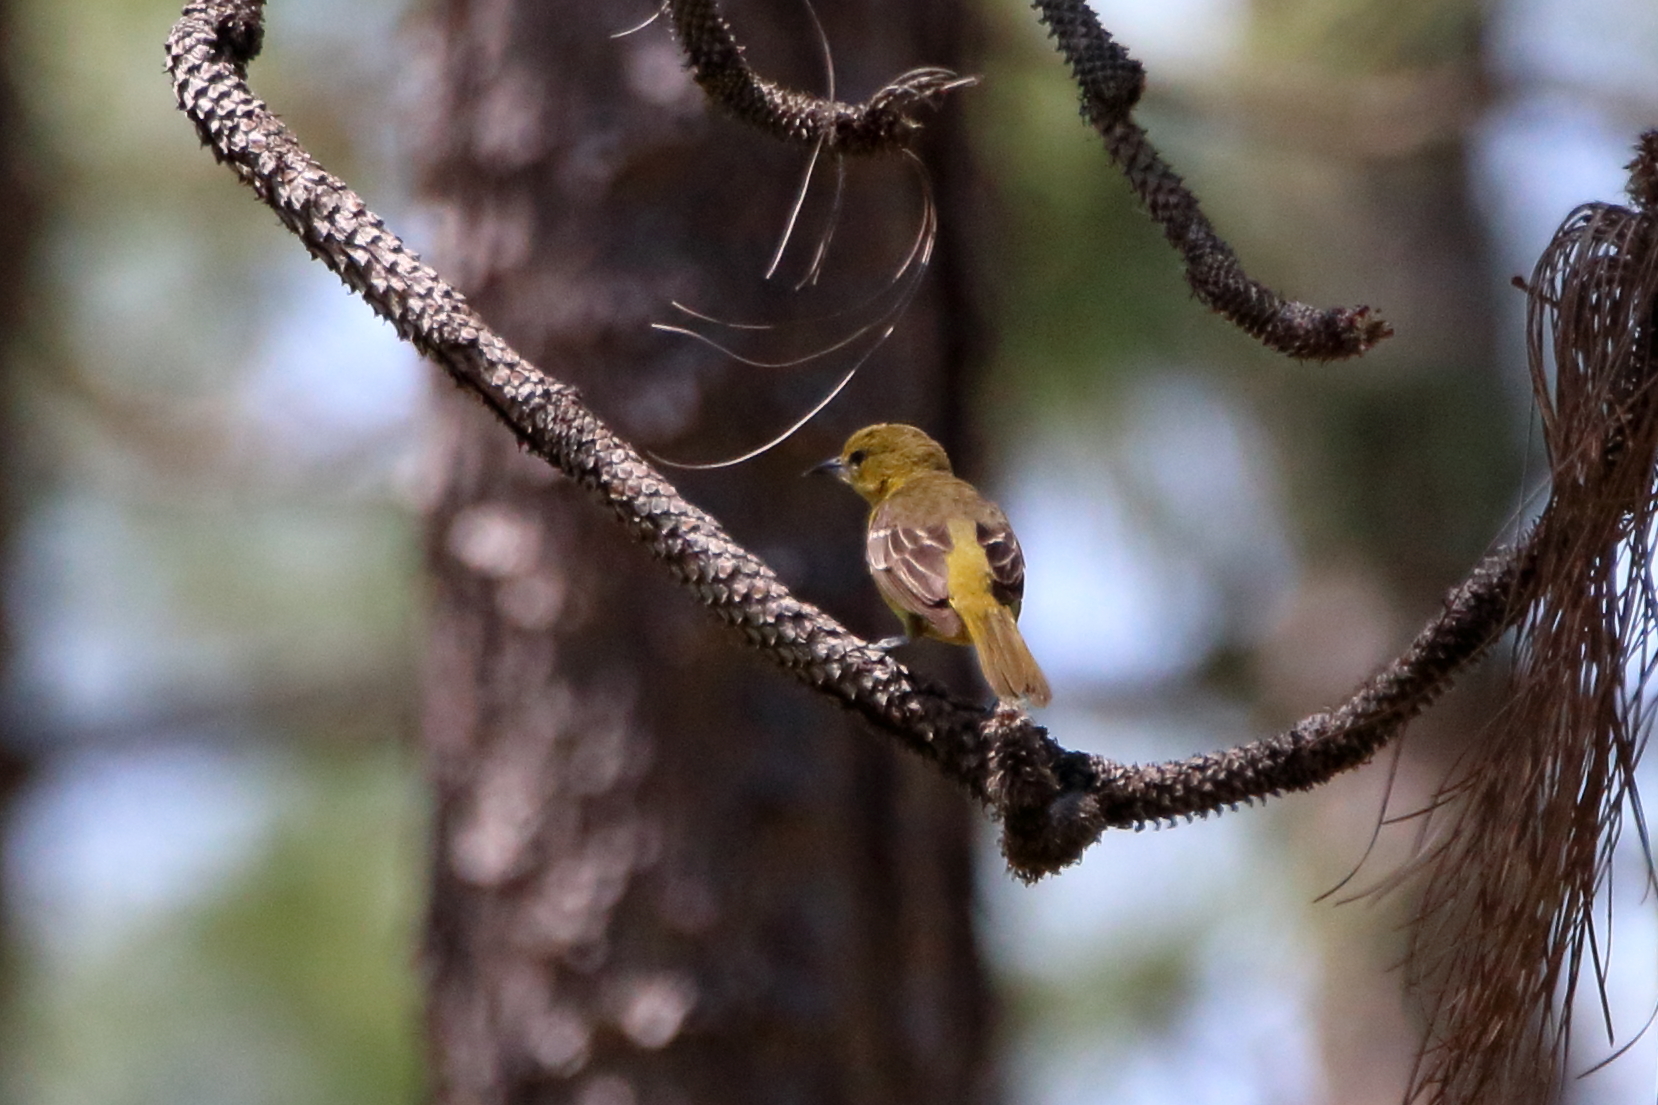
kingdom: Animalia
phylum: Chordata
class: Aves
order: Passeriformes
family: Icteridae
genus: Icterus
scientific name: Icterus spurius
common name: Orchard oriole
